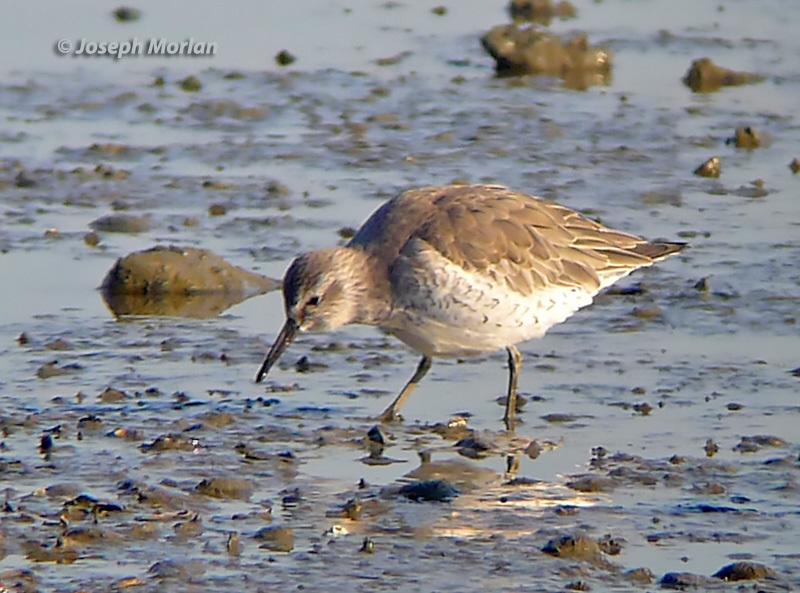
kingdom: Animalia
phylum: Chordata
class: Aves
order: Charadriiformes
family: Scolopacidae
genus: Calidris
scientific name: Calidris canutus
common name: Red knot
